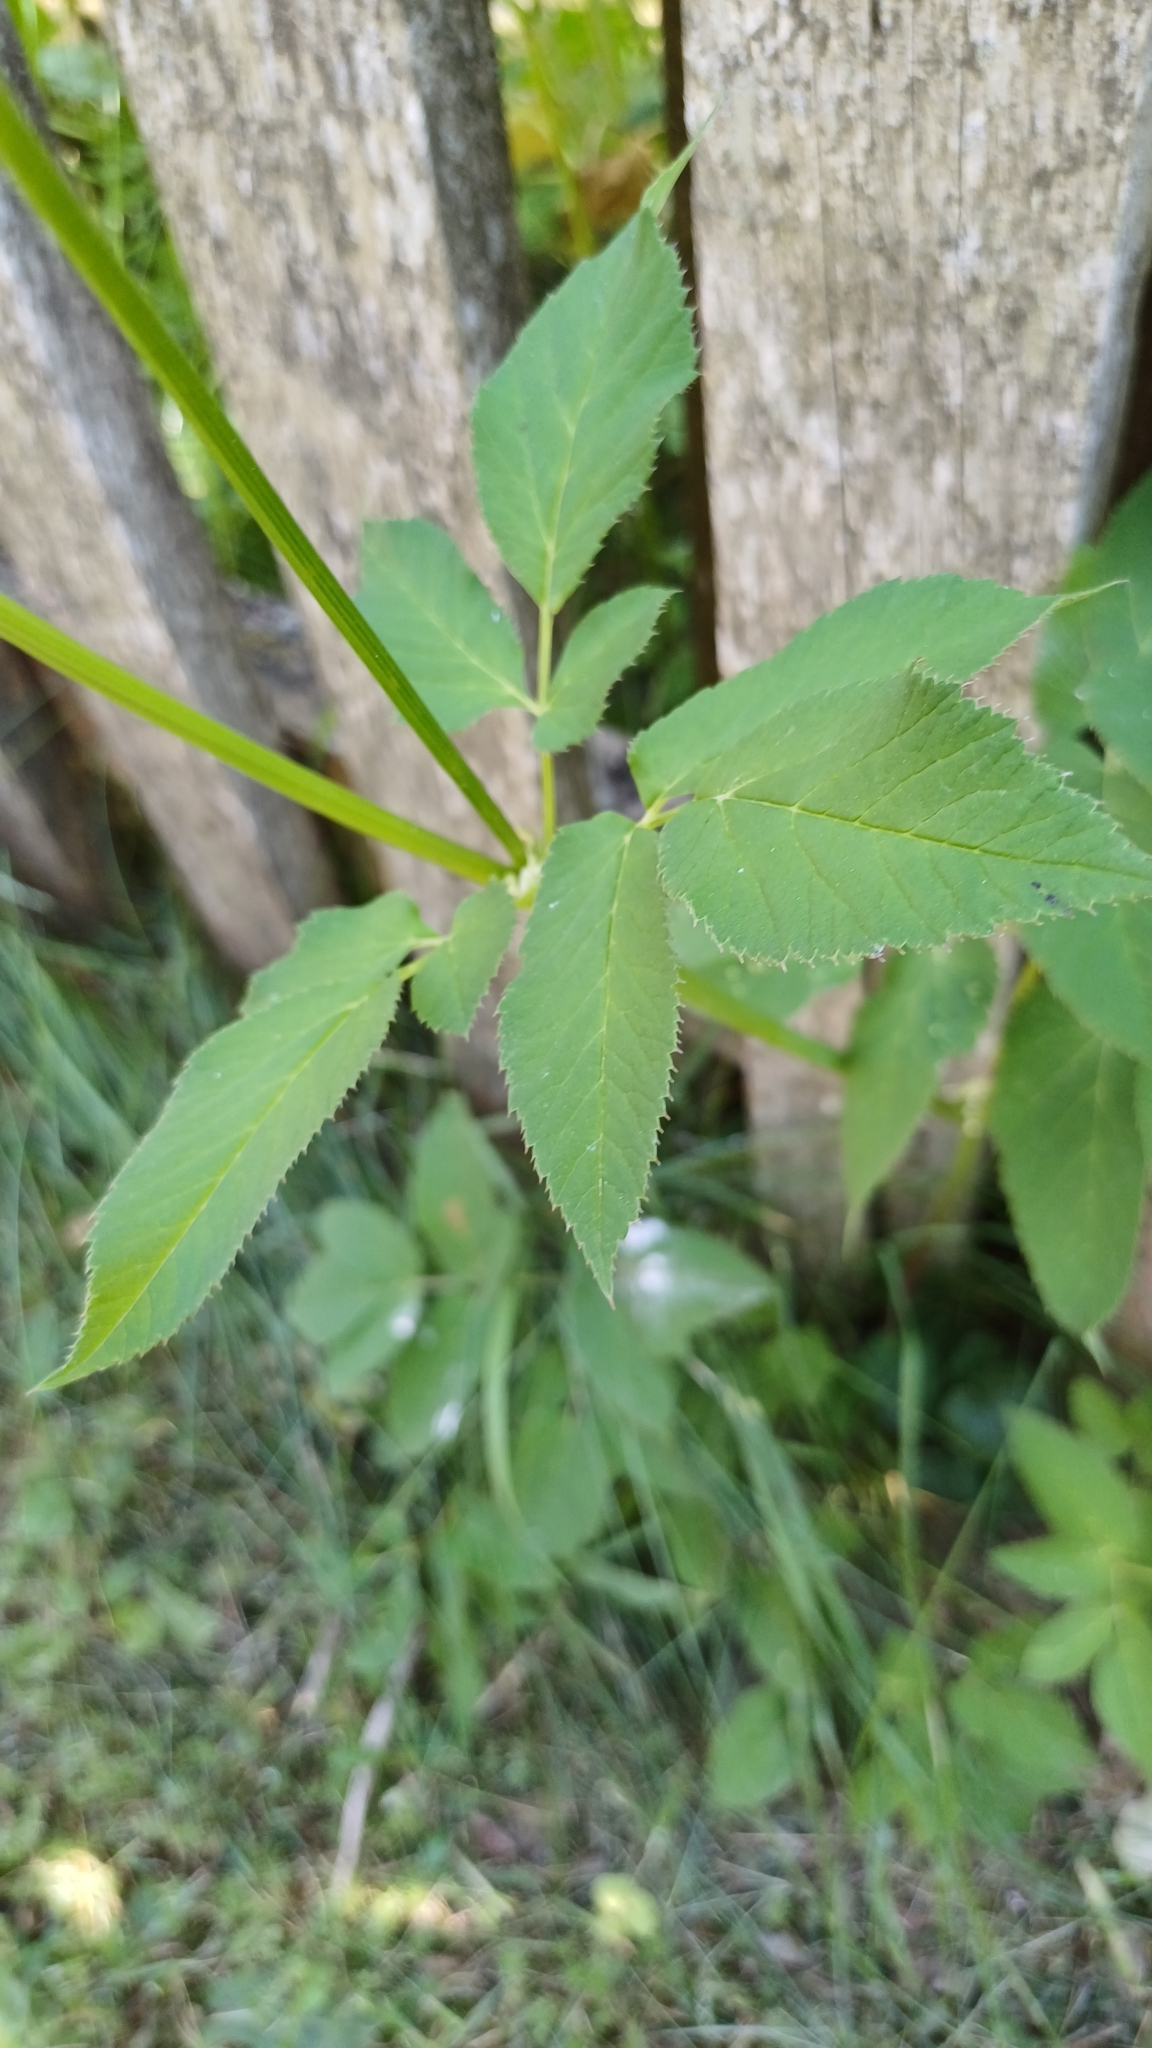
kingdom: Plantae
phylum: Tracheophyta
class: Magnoliopsida
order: Apiales
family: Apiaceae
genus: Aegopodium
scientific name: Aegopodium podagraria
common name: Ground-elder
